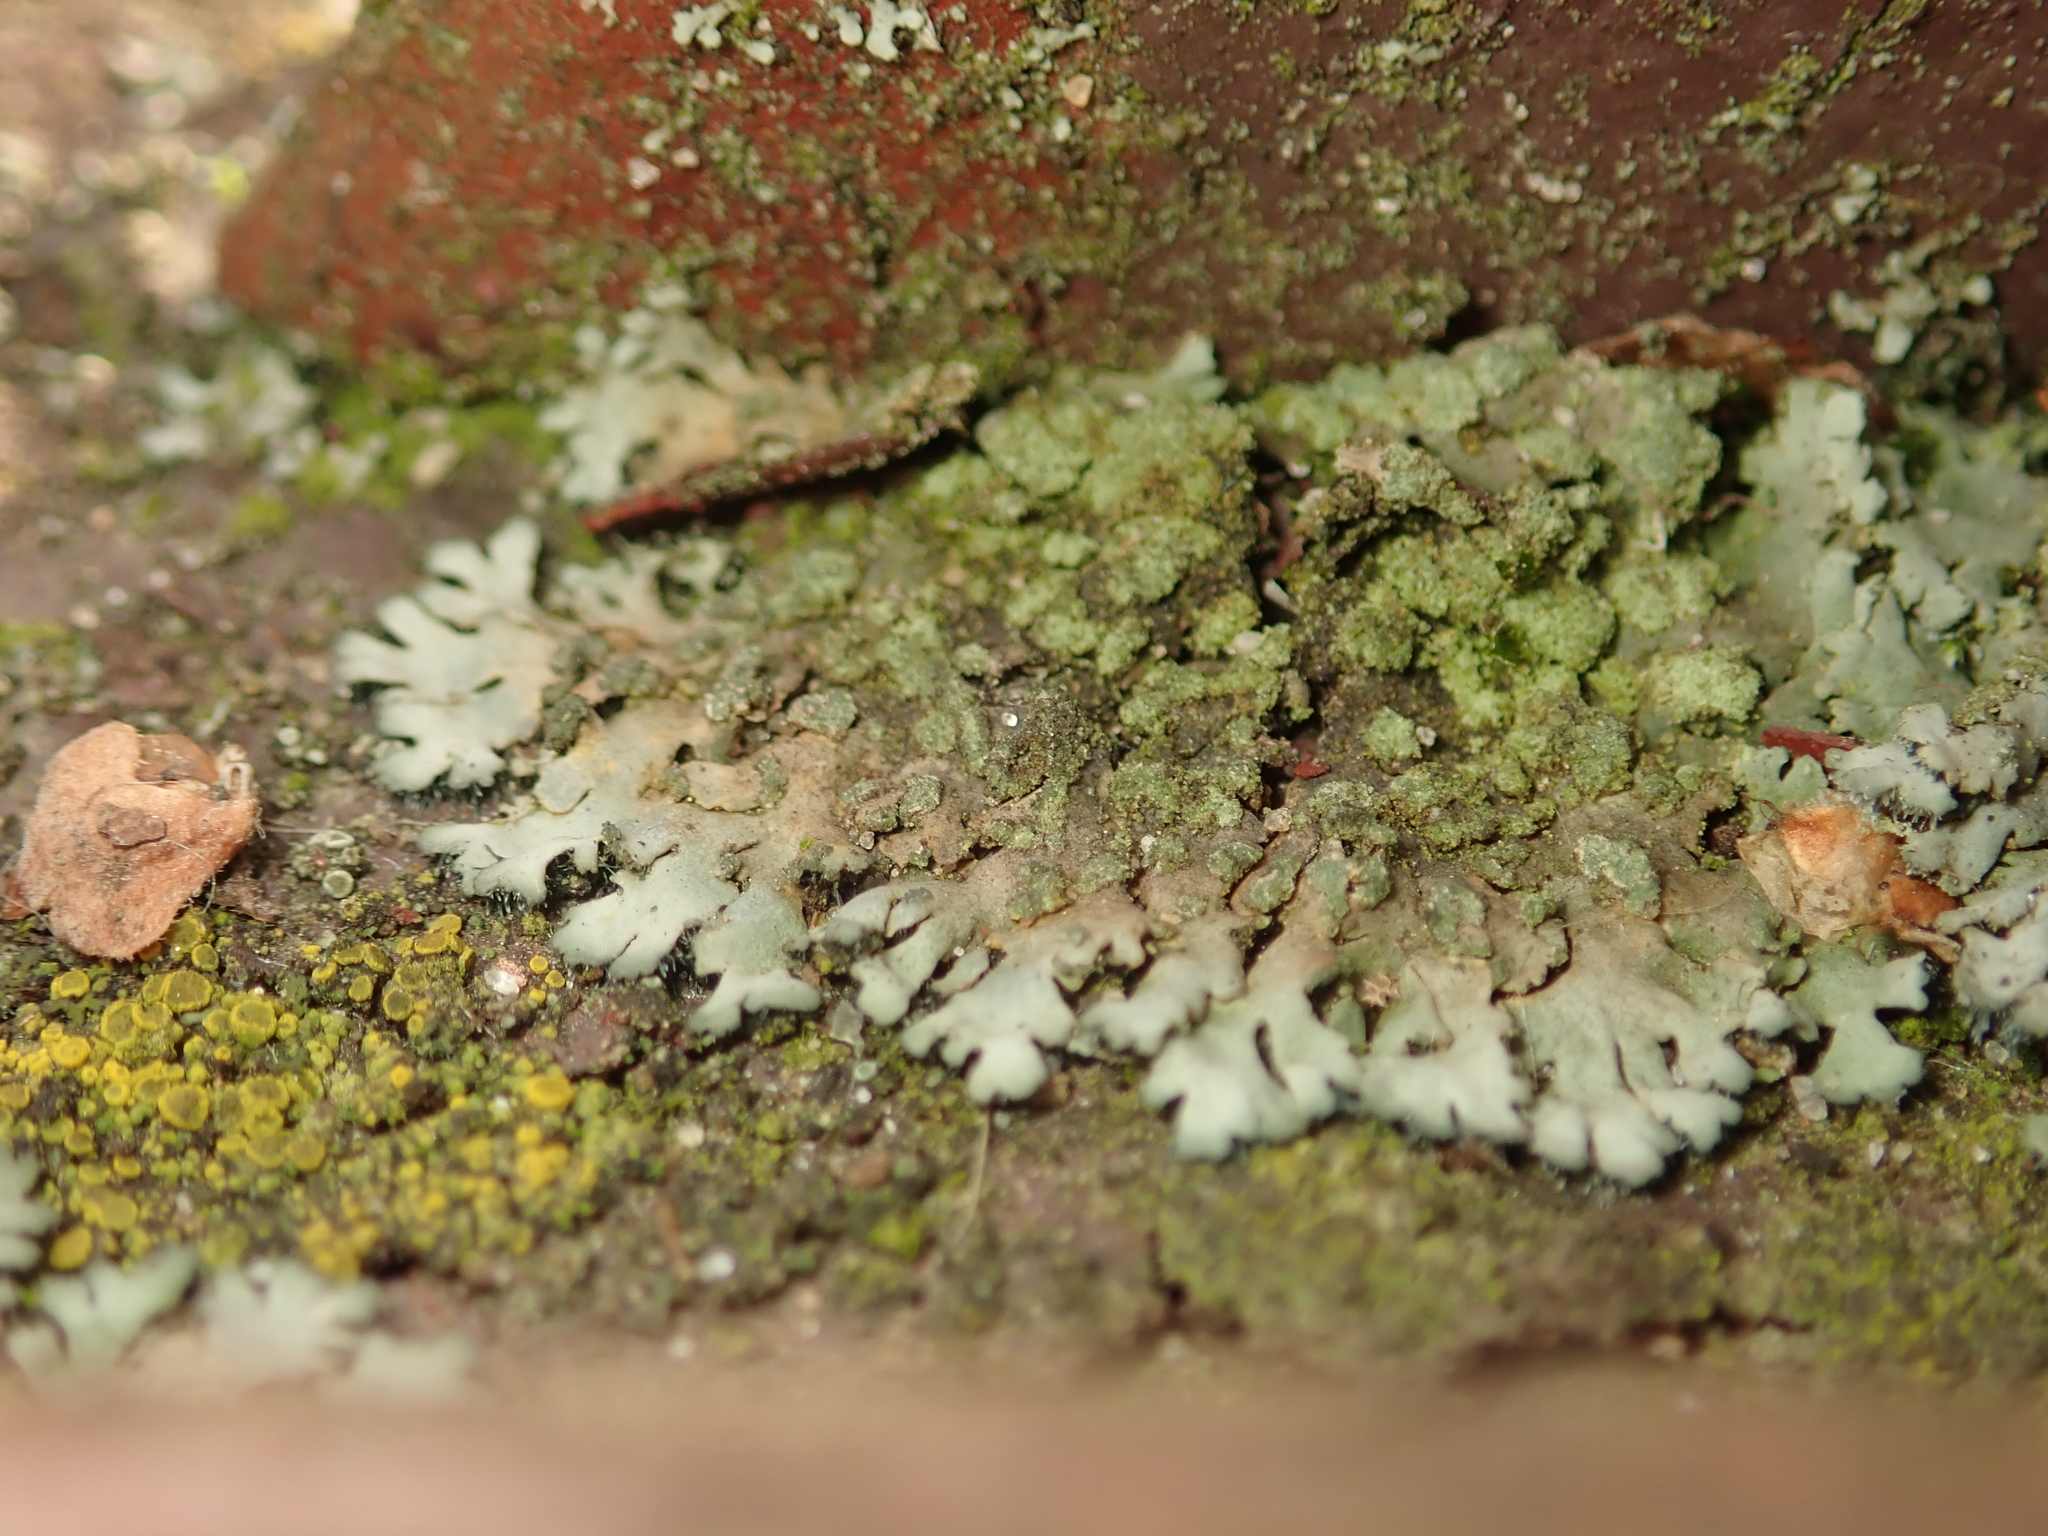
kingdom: Fungi
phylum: Ascomycota
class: Lecanoromycetes
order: Caliciales
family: Physciaceae
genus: Phaeophyscia
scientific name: Phaeophyscia orbicularis
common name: Mealy shadow lichen
